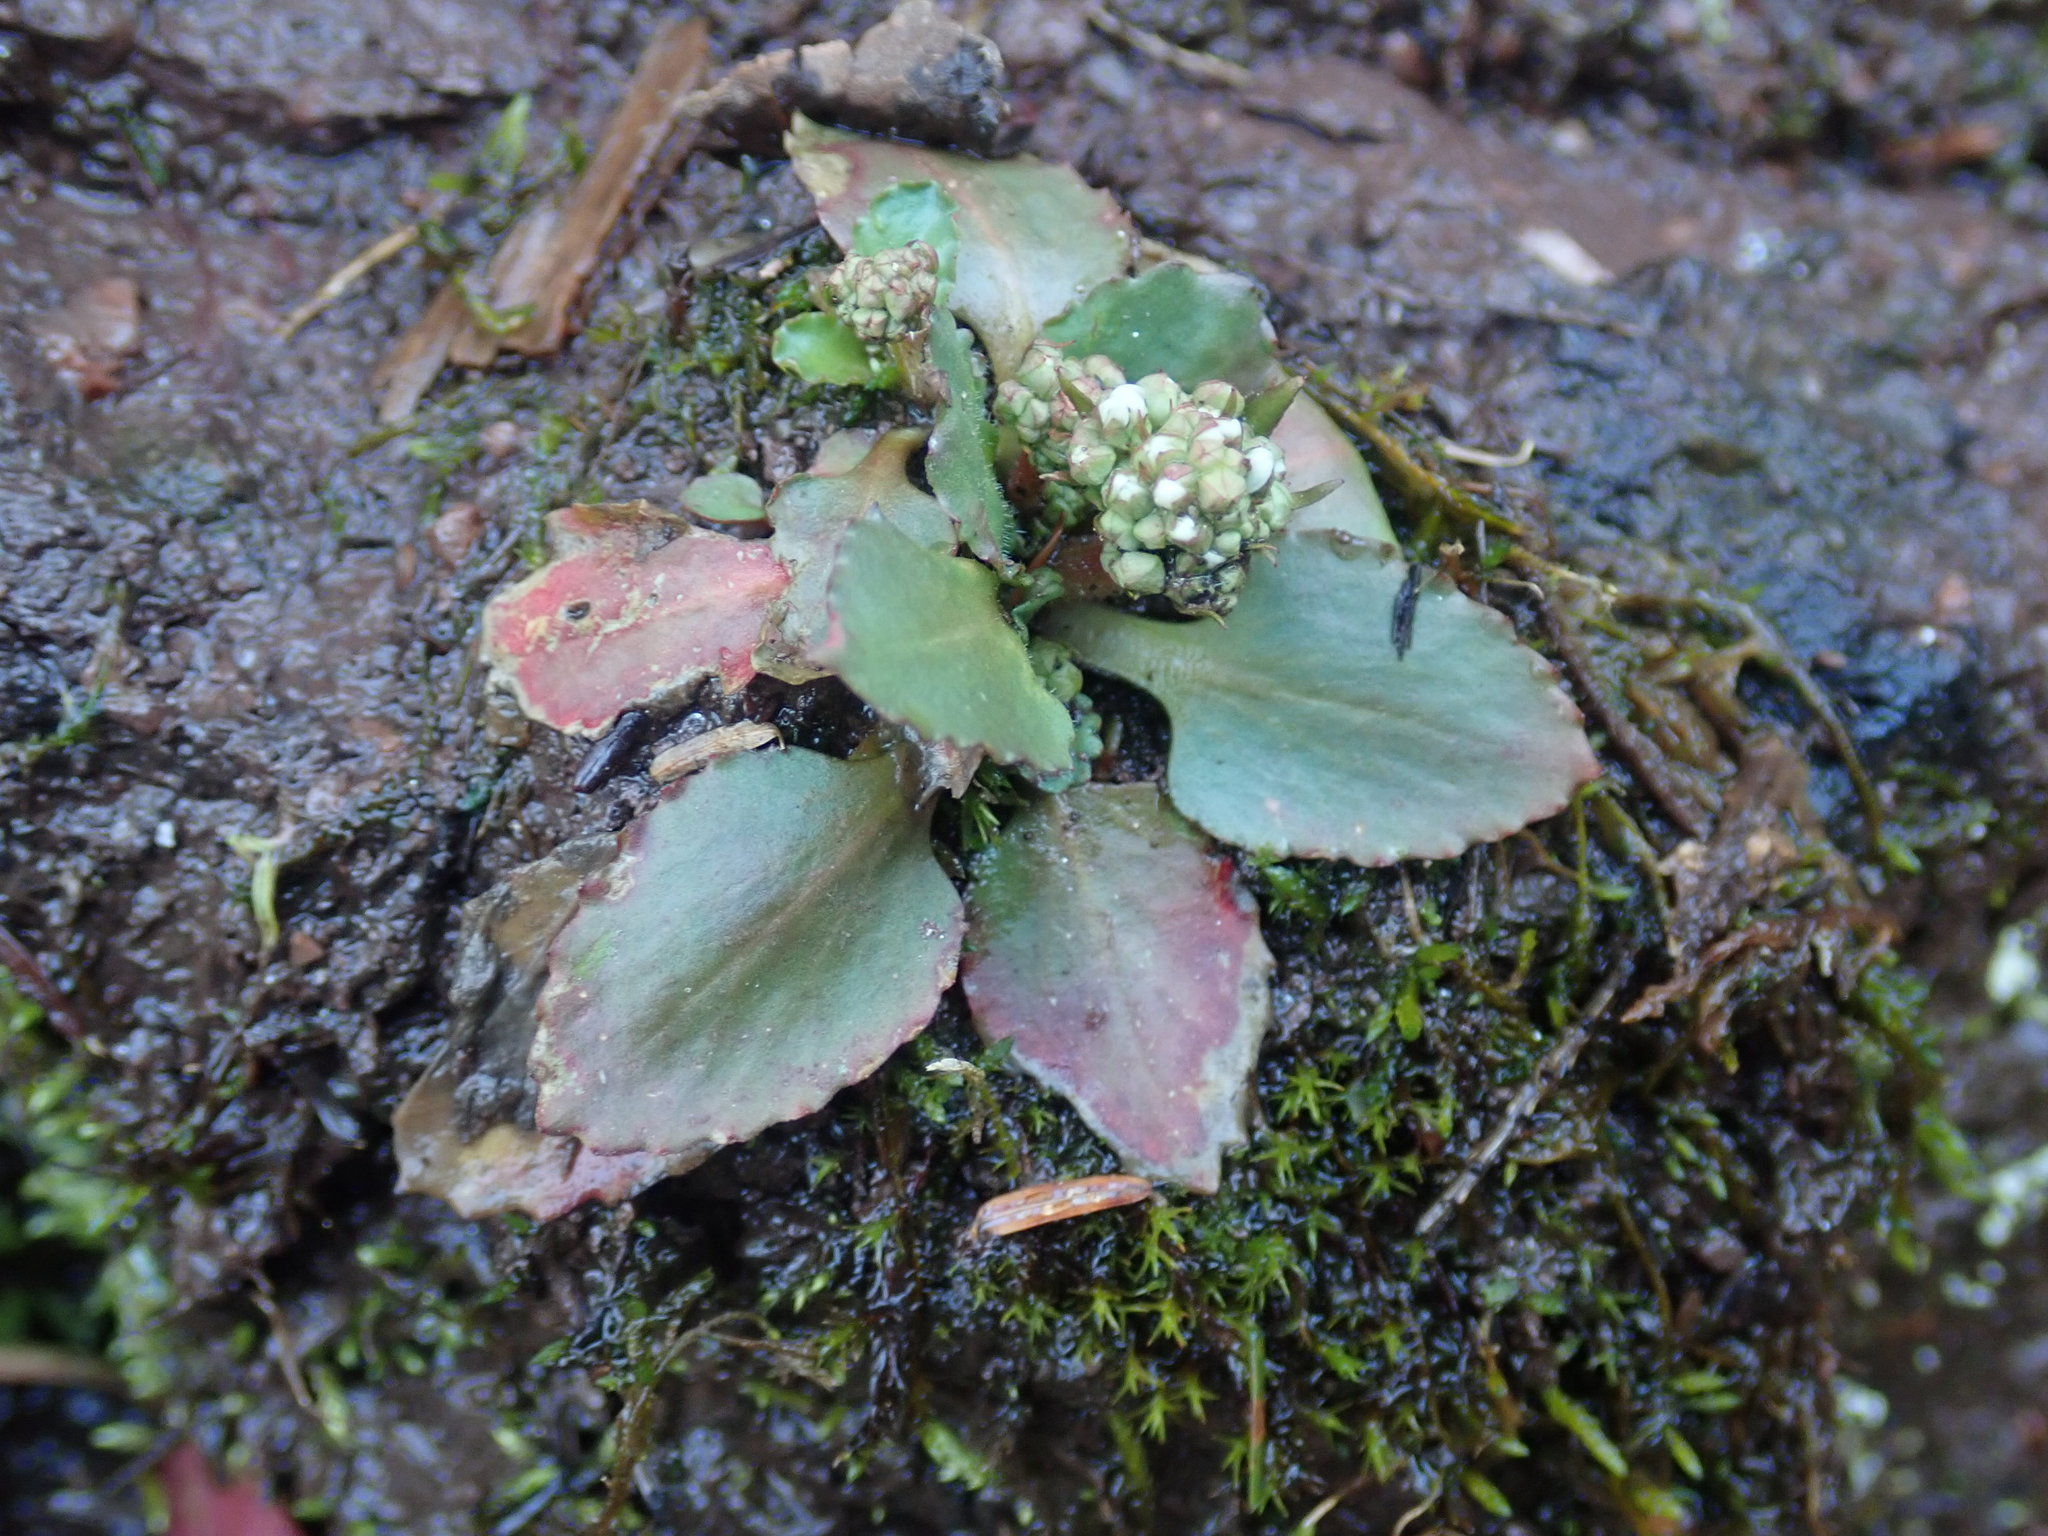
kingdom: Plantae
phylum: Tracheophyta
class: Magnoliopsida
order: Saxifragales
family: Saxifragaceae
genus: Micranthes
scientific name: Micranthes virginiensis
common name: Early saxifrage
